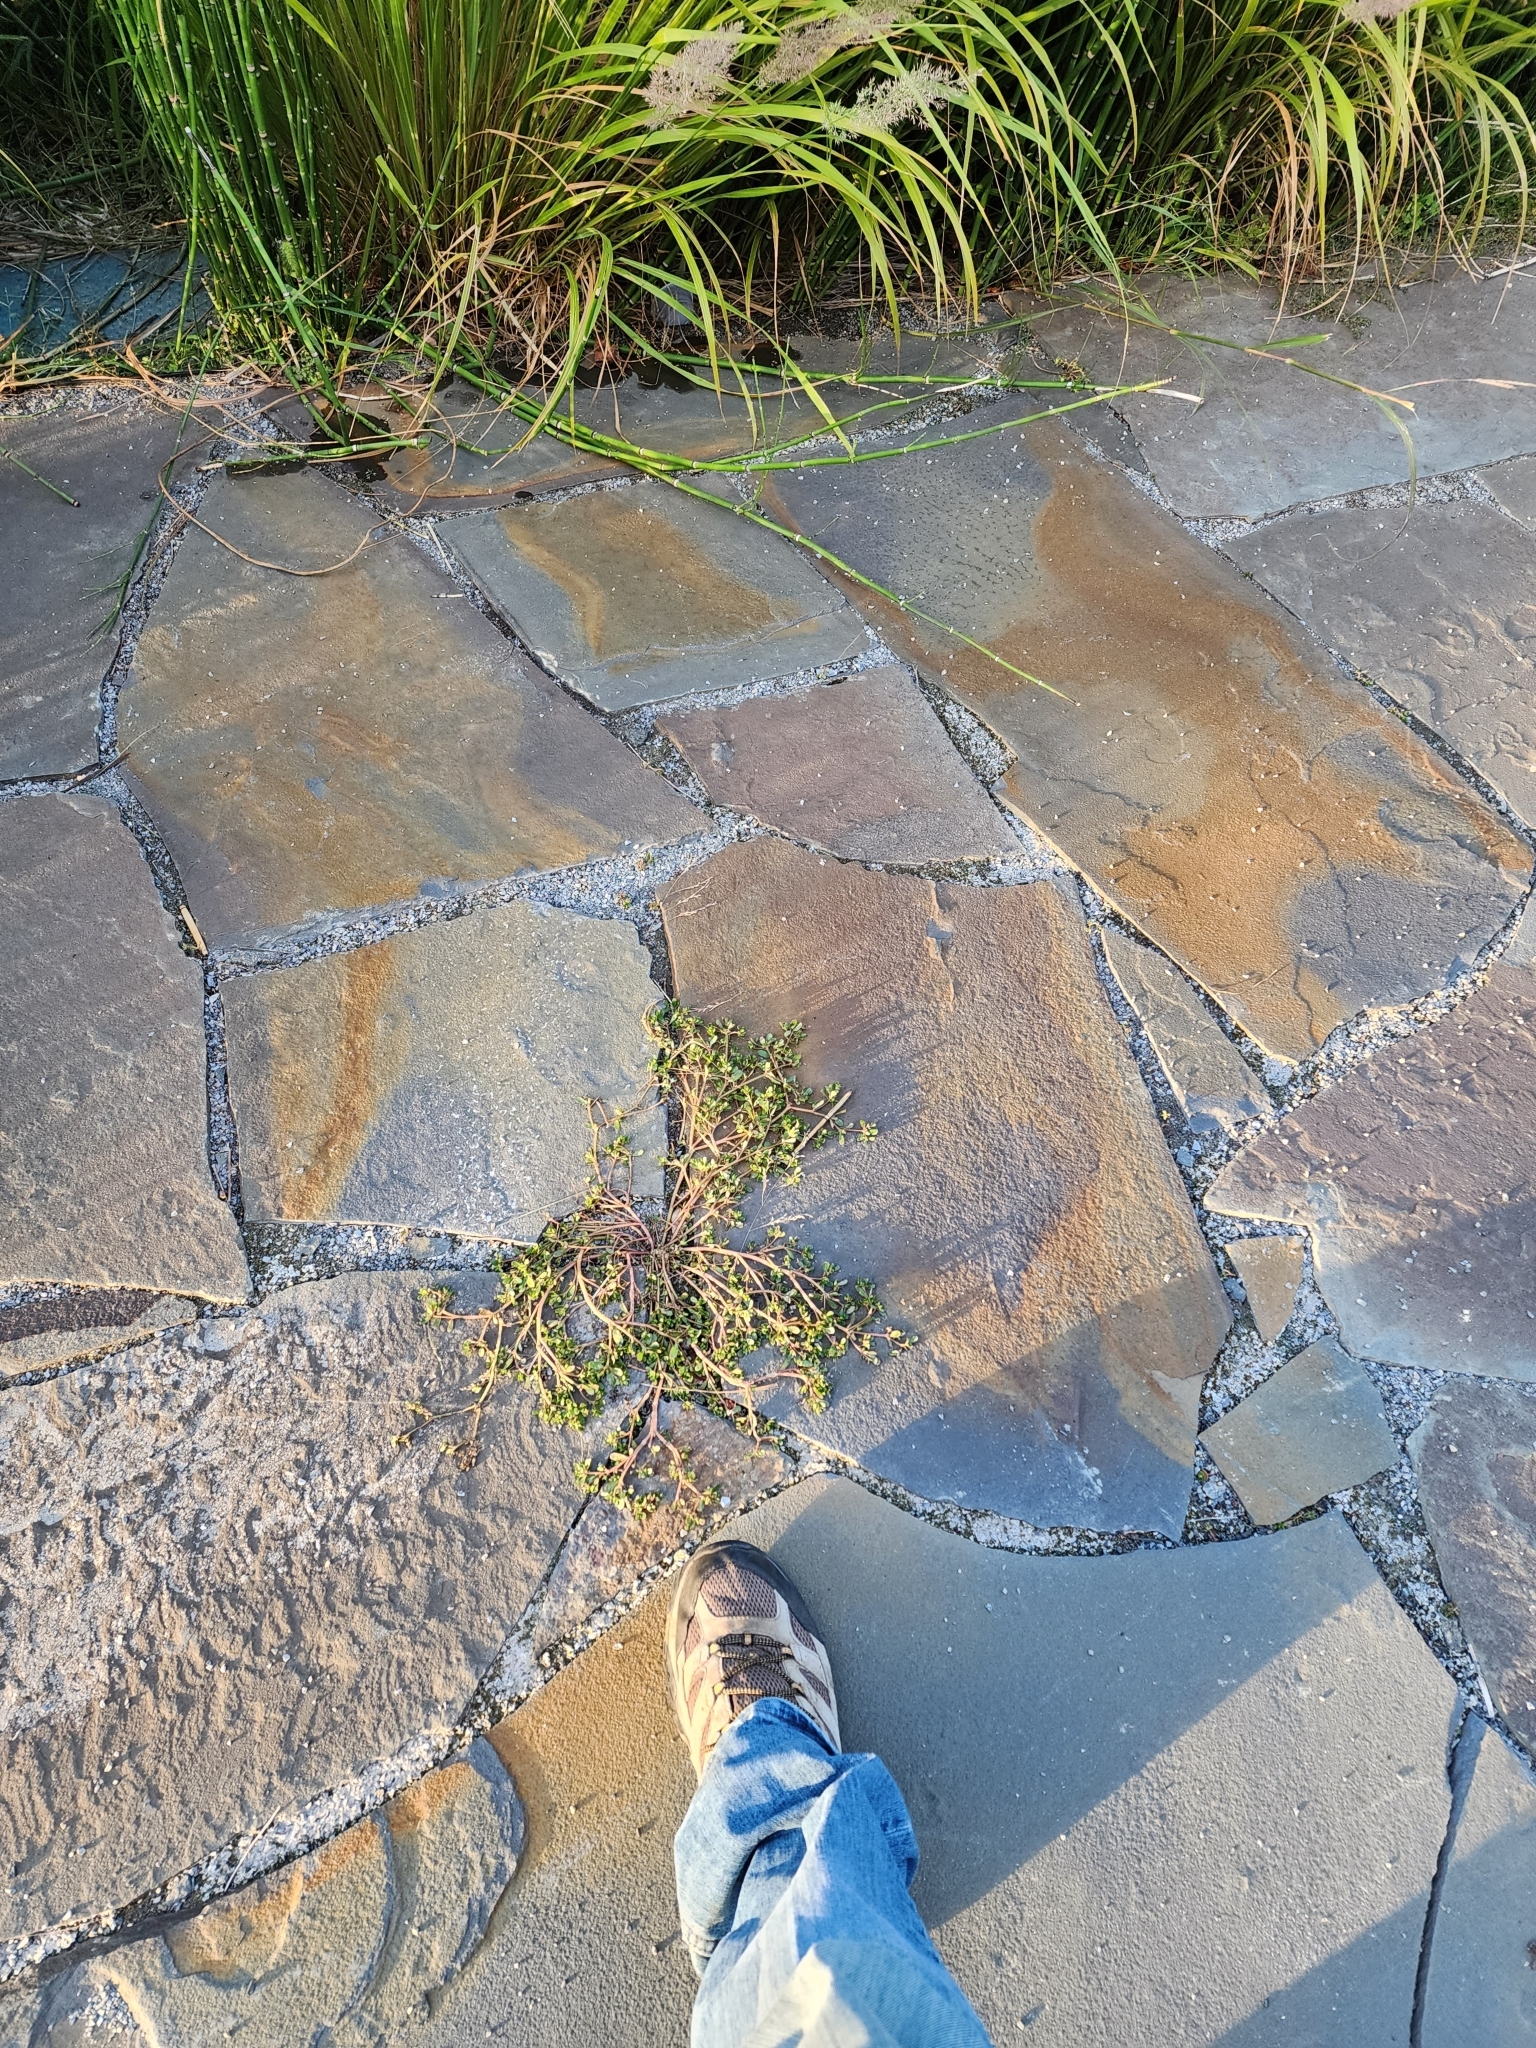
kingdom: Plantae
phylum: Tracheophyta
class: Magnoliopsida
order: Caryophyllales
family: Portulacaceae
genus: Portulaca
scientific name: Portulaca oleracea
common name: Common purslane
